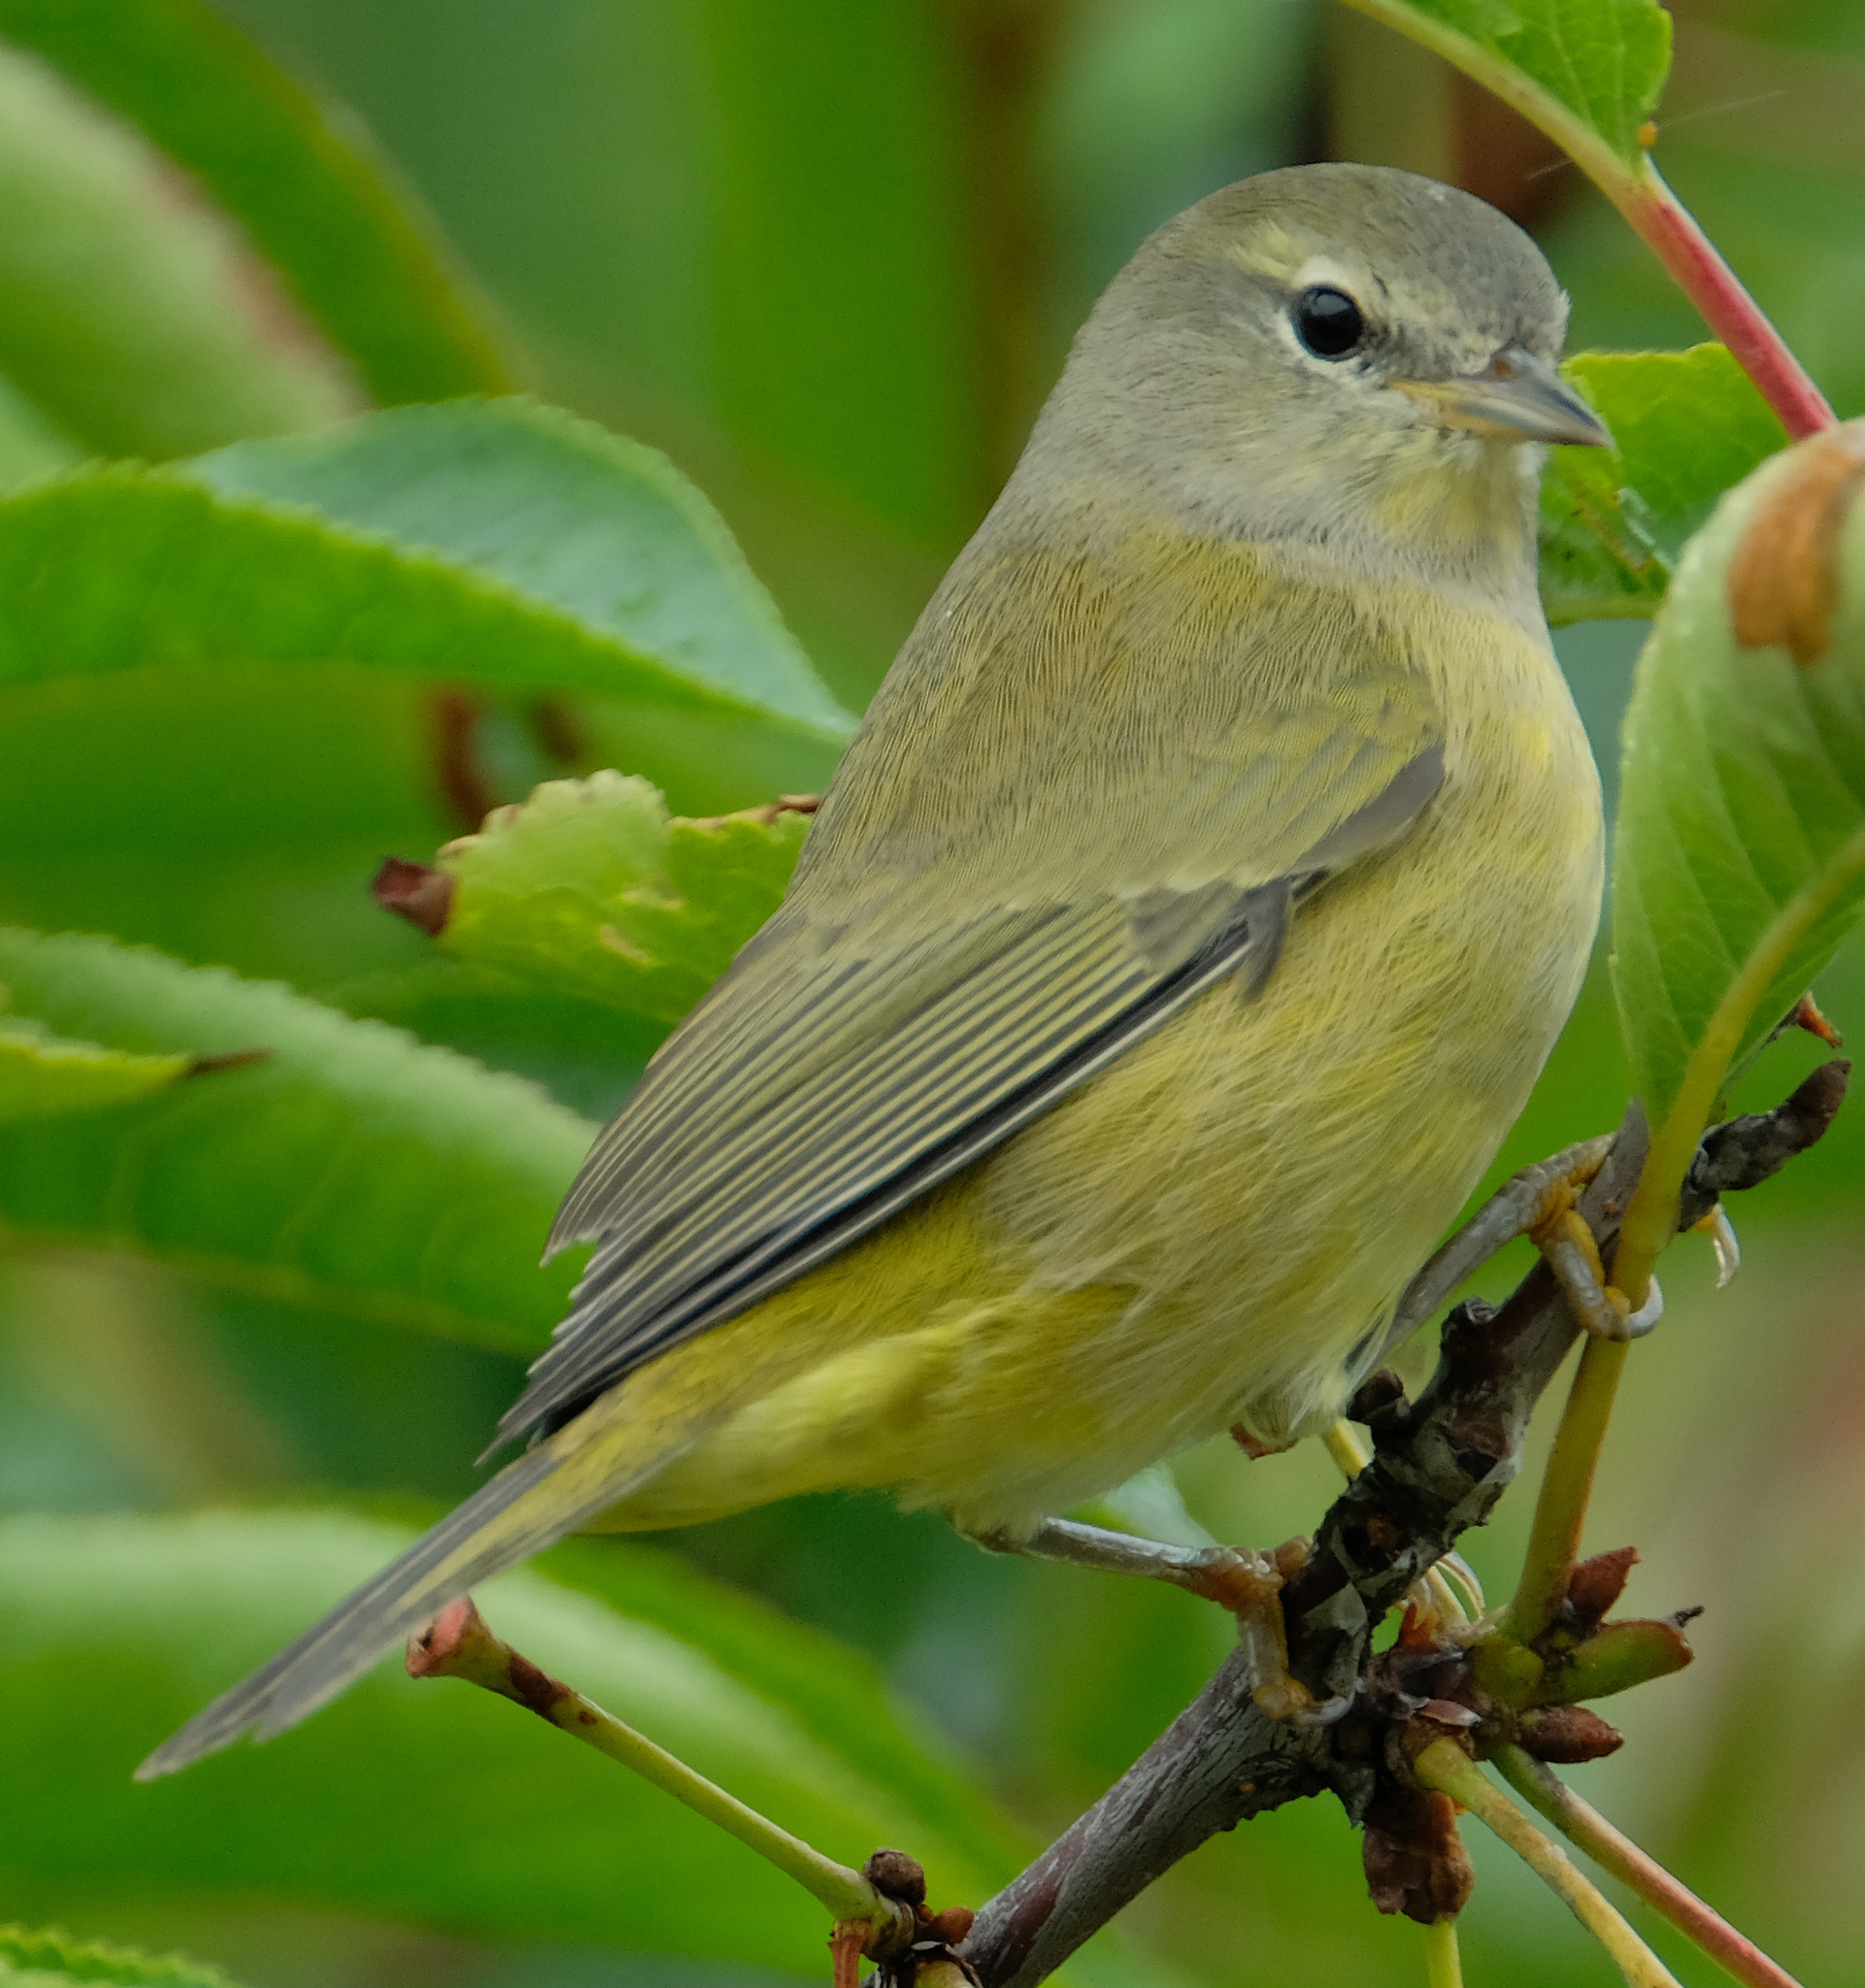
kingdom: Animalia
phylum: Chordata
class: Aves
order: Passeriformes
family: Parulidae
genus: Leiothlypis
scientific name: Leiothlypis celata
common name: Orange-crowned warbler
